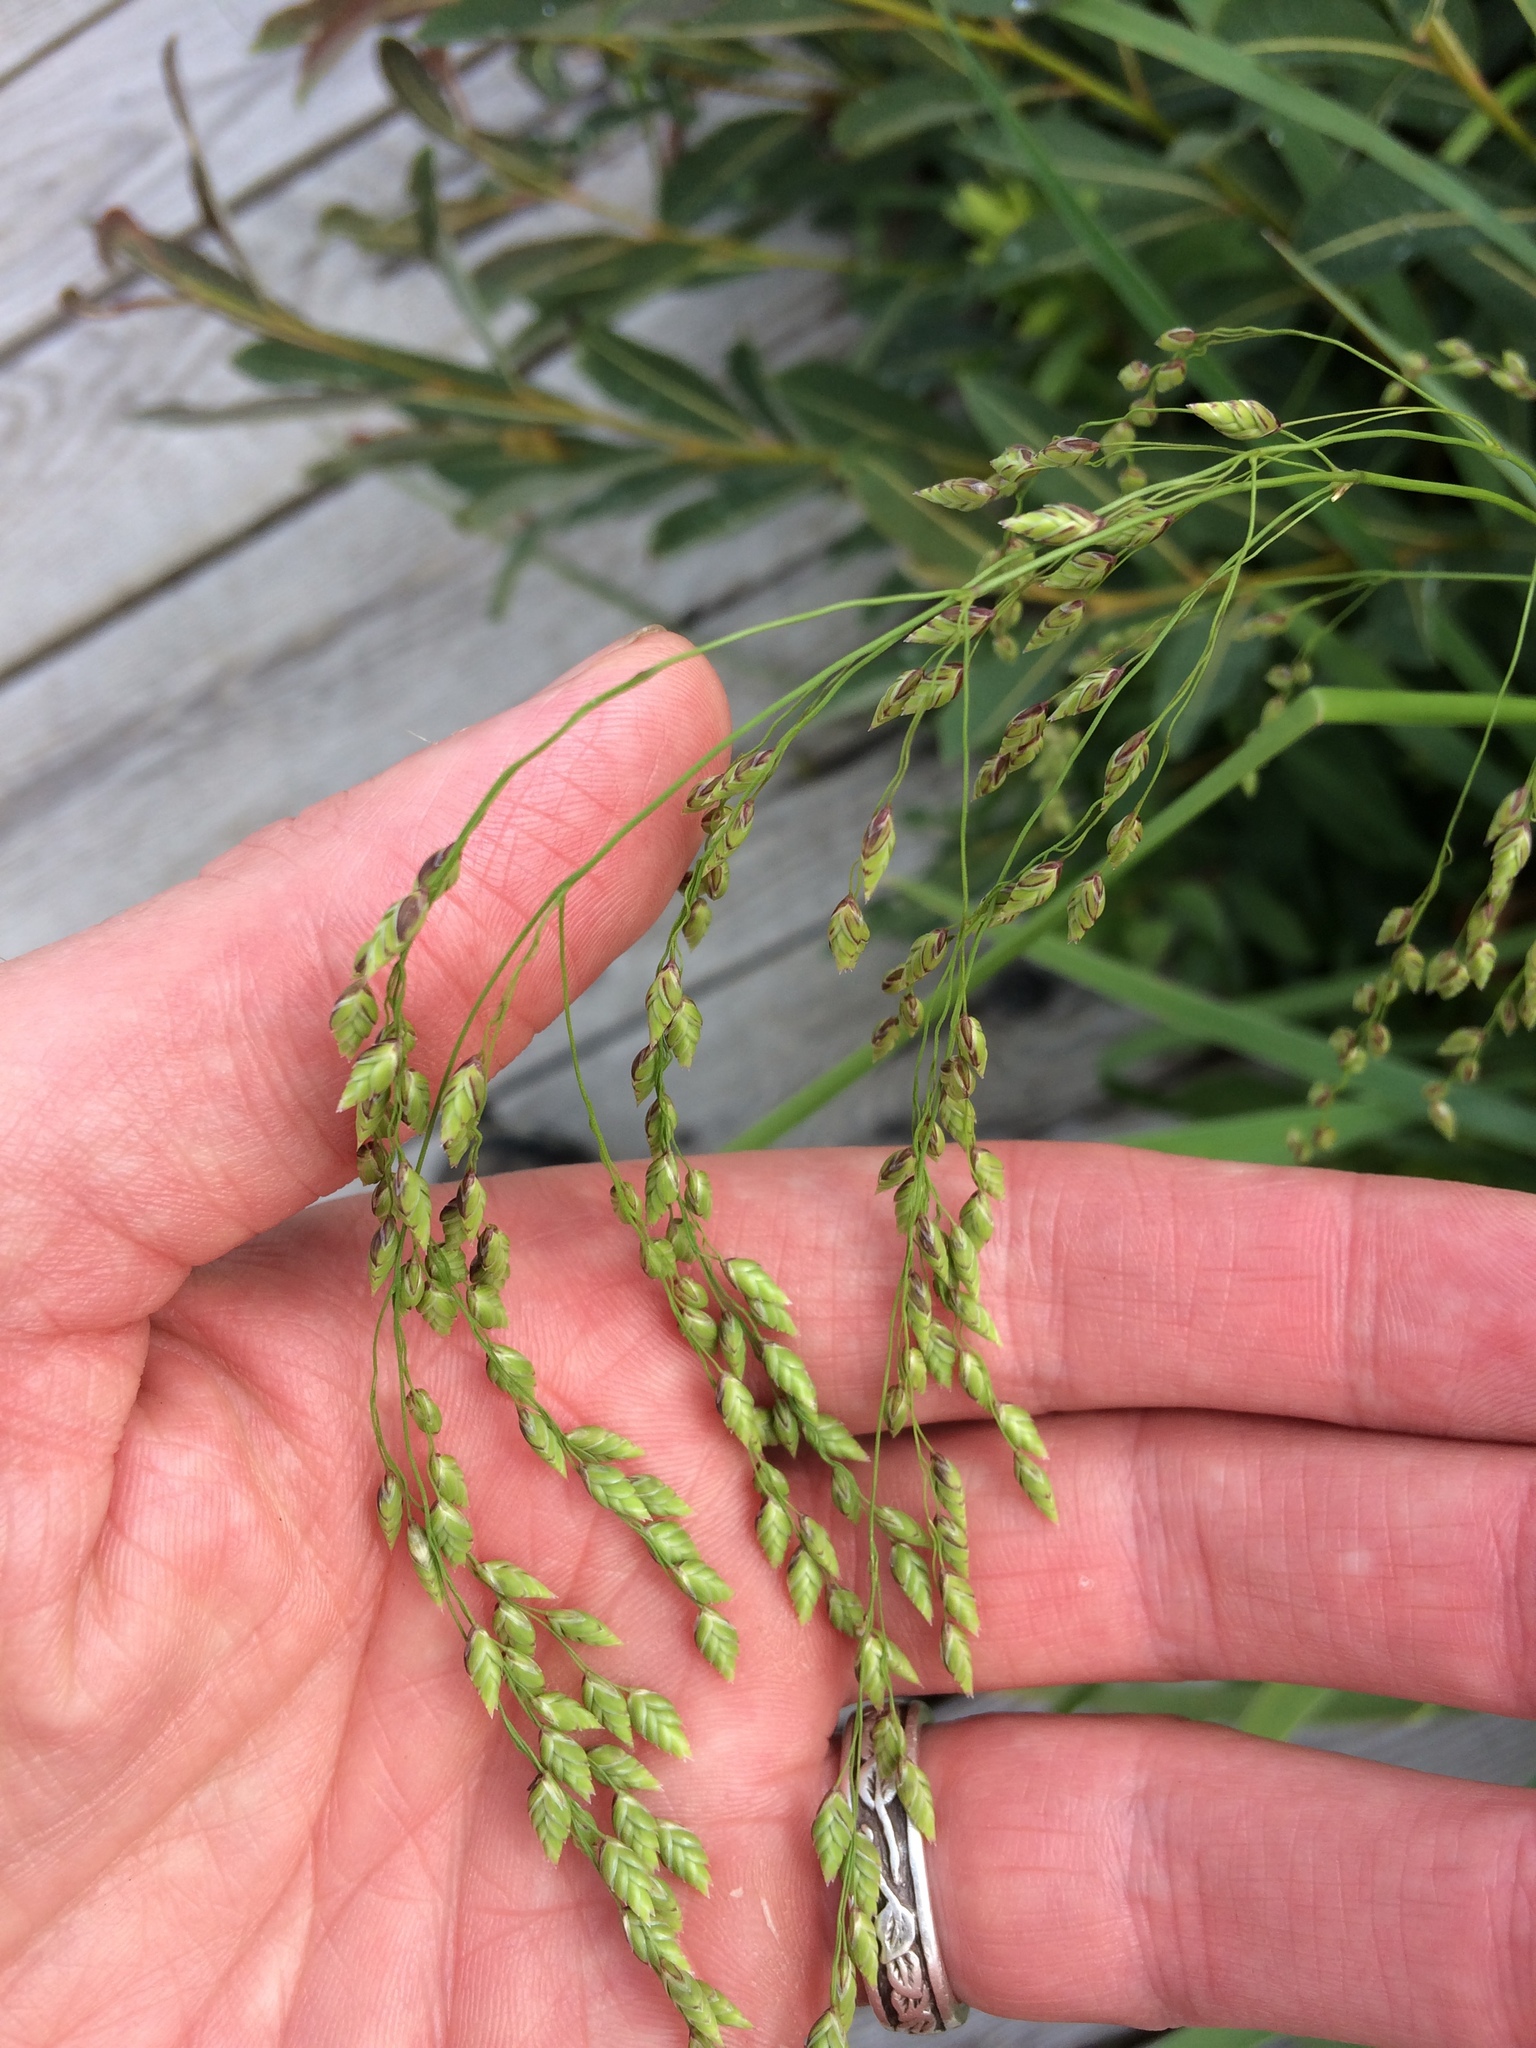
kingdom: Plantae
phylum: Tracheophyta
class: Liliopsida
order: Poales
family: Poaceae
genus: Glyceria
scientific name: Glyceria canadensis
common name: Canada mannagrass
